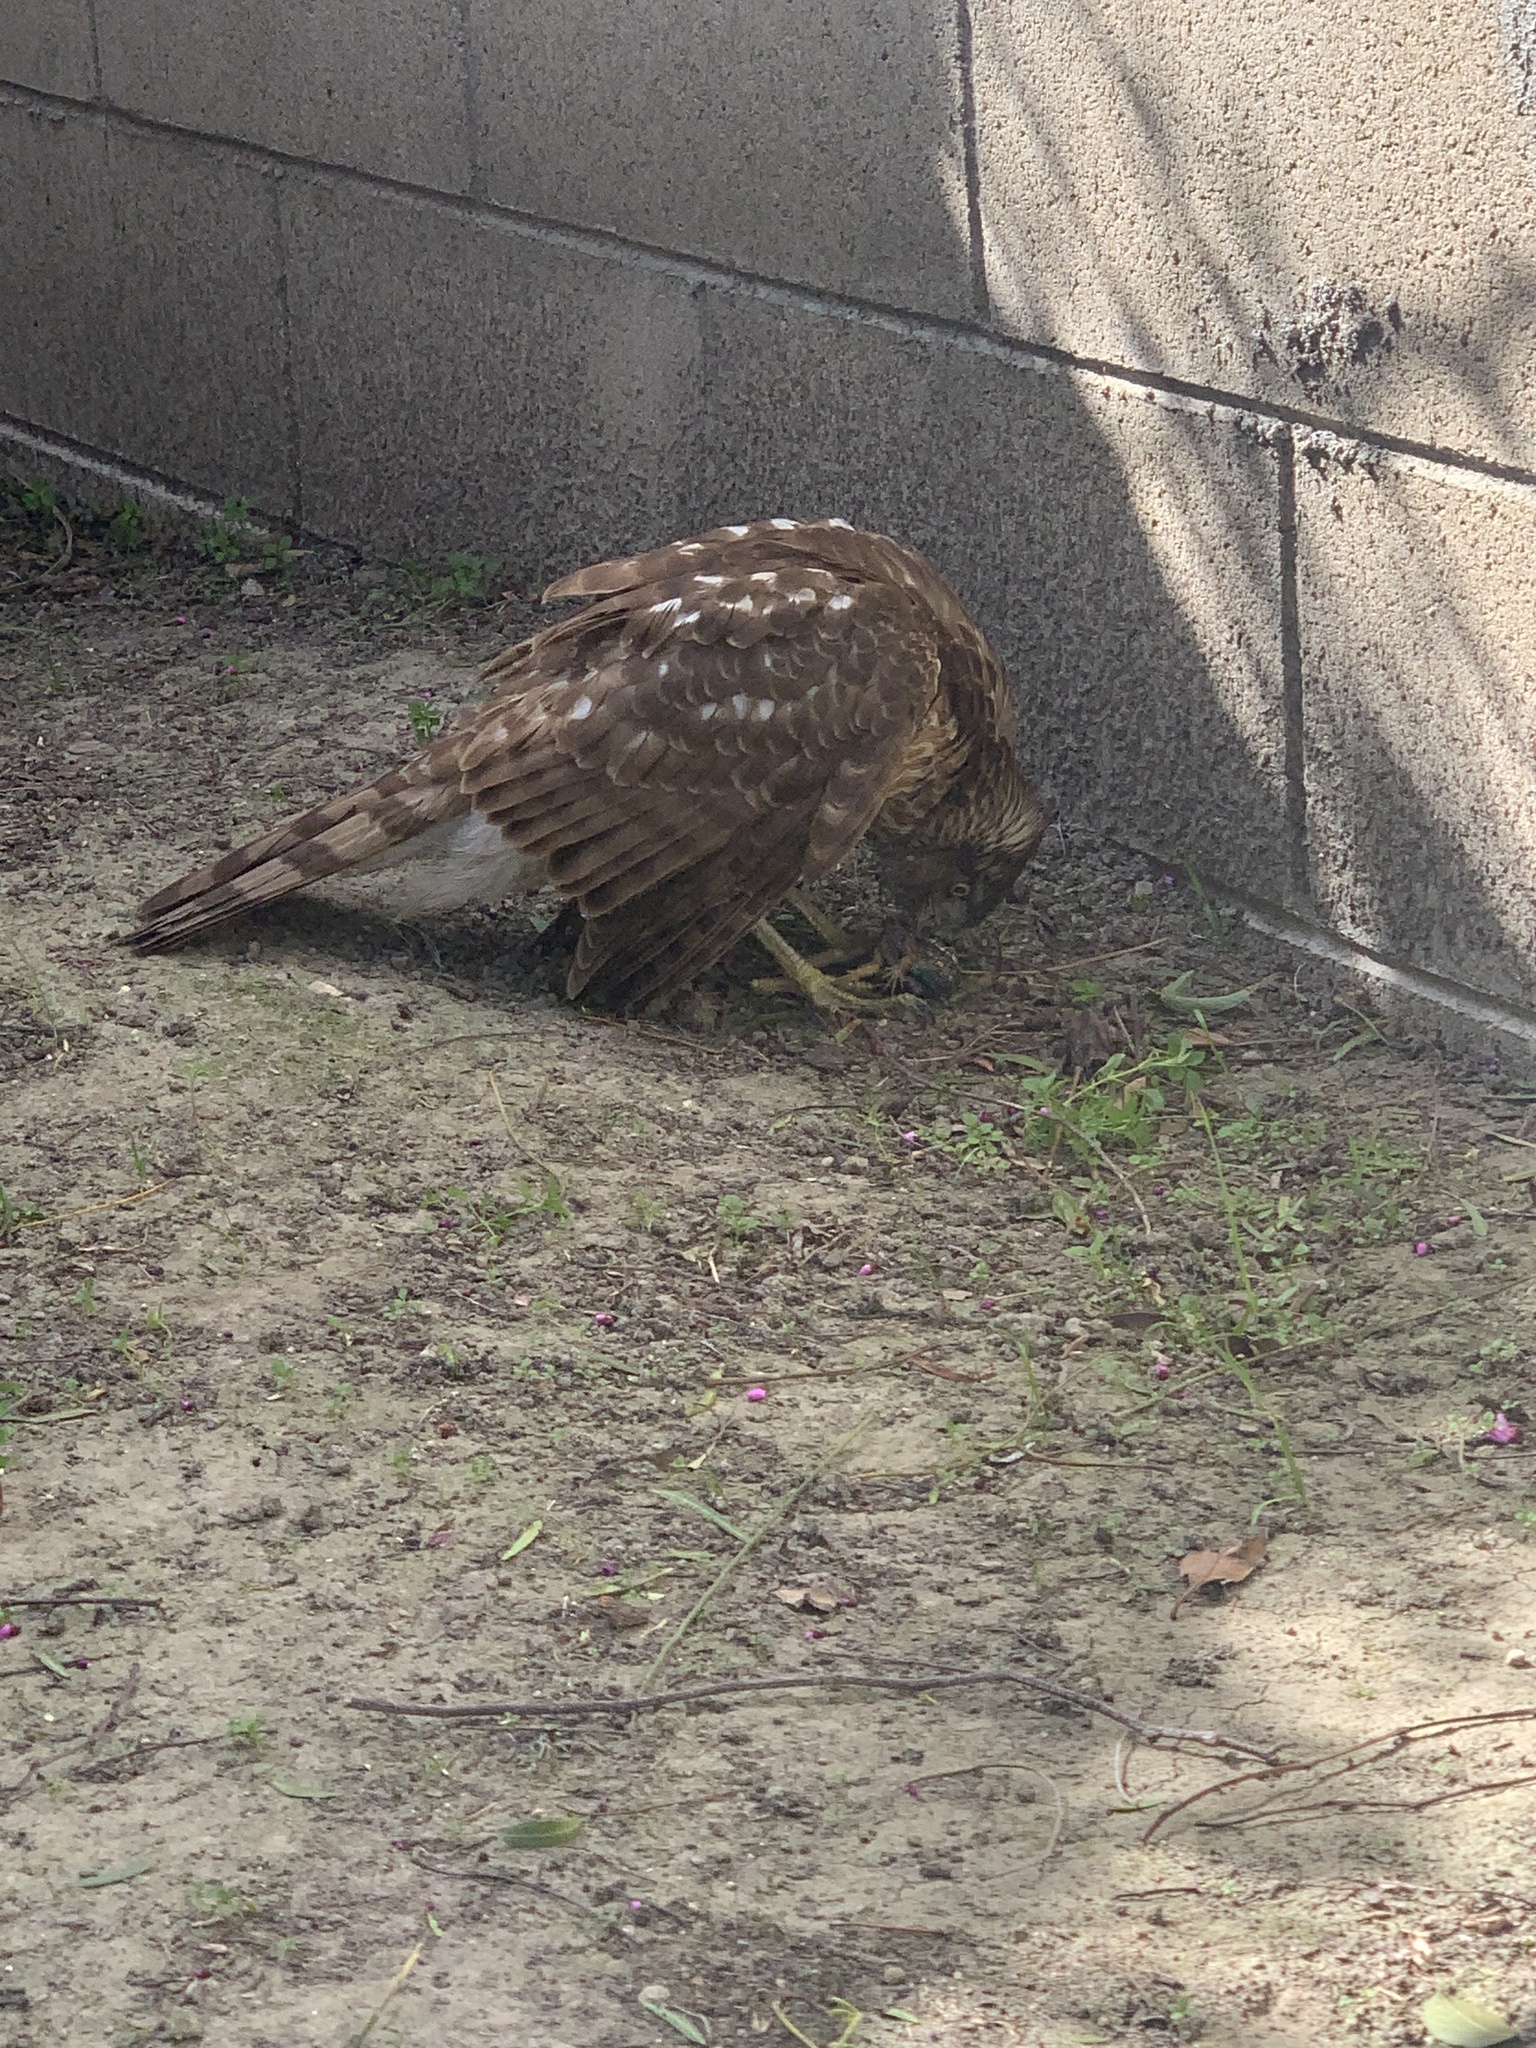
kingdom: Animalia
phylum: Chordata
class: Aves
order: Accipitriformes
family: Accipitridae
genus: Accipiter
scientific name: Accipiter cooperii
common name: Cooper's hawk
